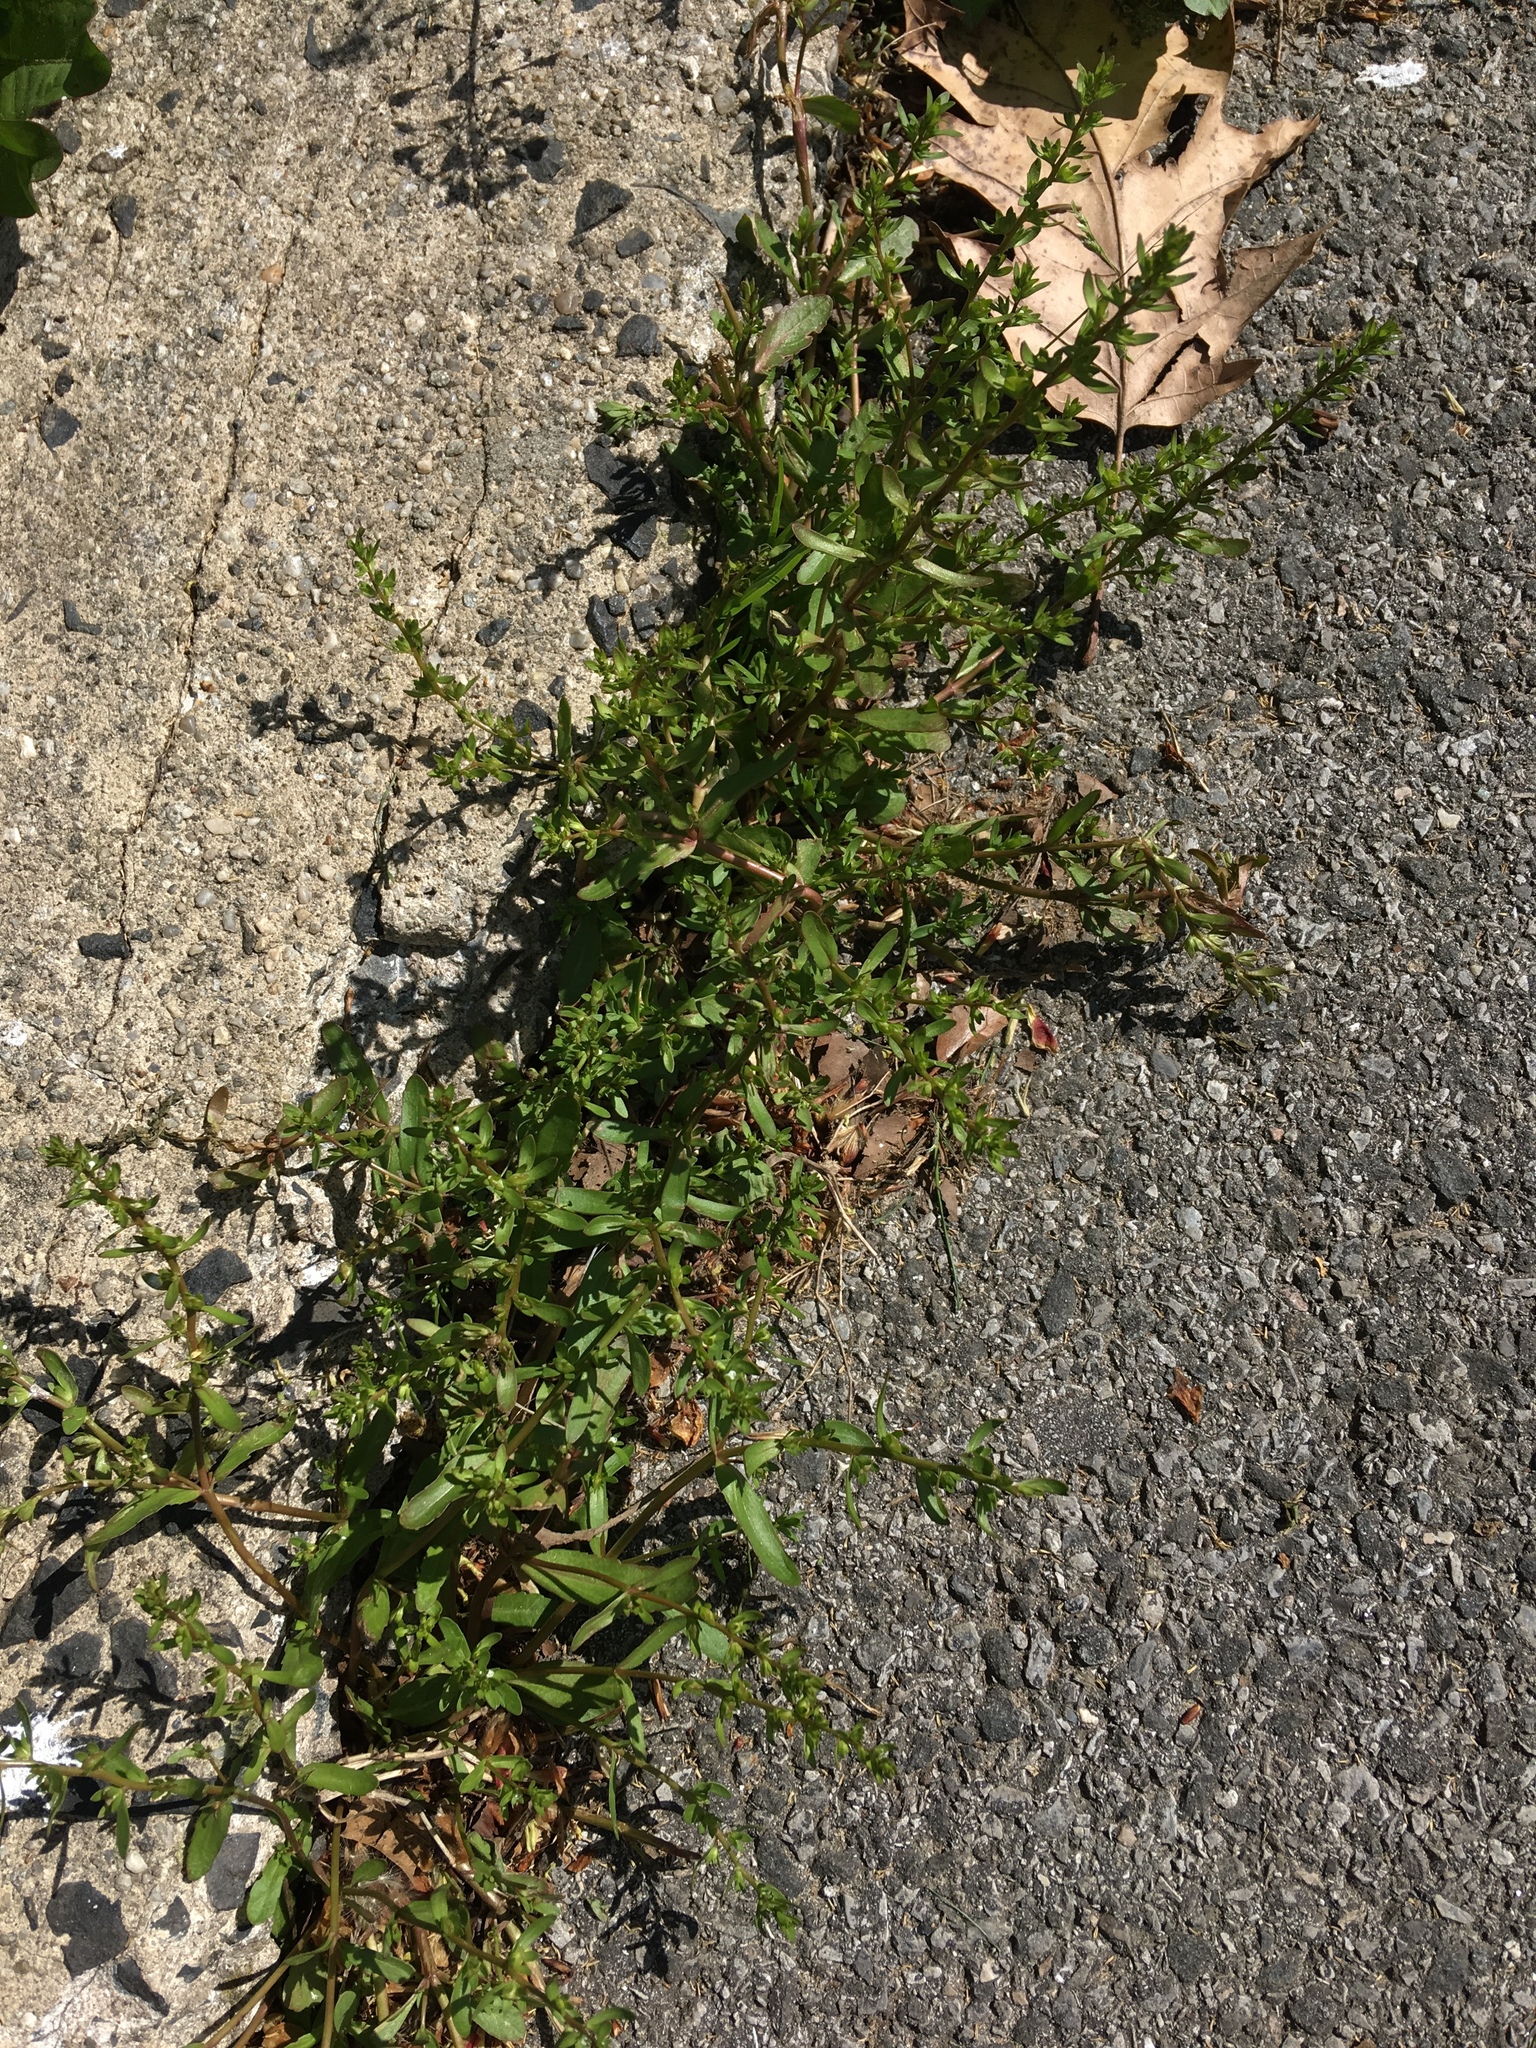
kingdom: Plantae
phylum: Tracheophyta
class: Magnoliopsida
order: Lamiales
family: Plantaginaceae
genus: Veronica
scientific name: Veronica peregrina
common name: Neckweed
